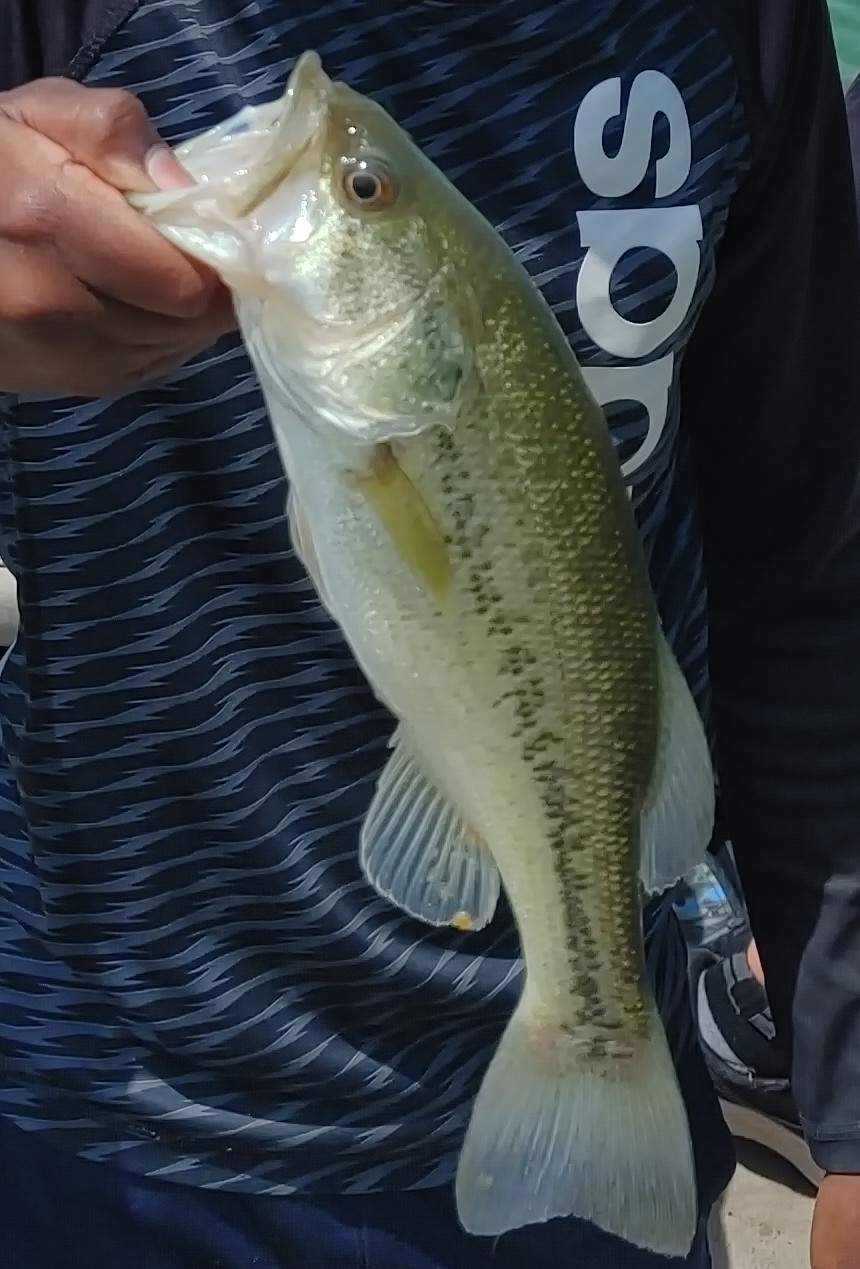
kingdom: Animalia
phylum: Chordata
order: Perciformes
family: Centrarchidae
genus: Micropterus
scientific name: Micropterus
